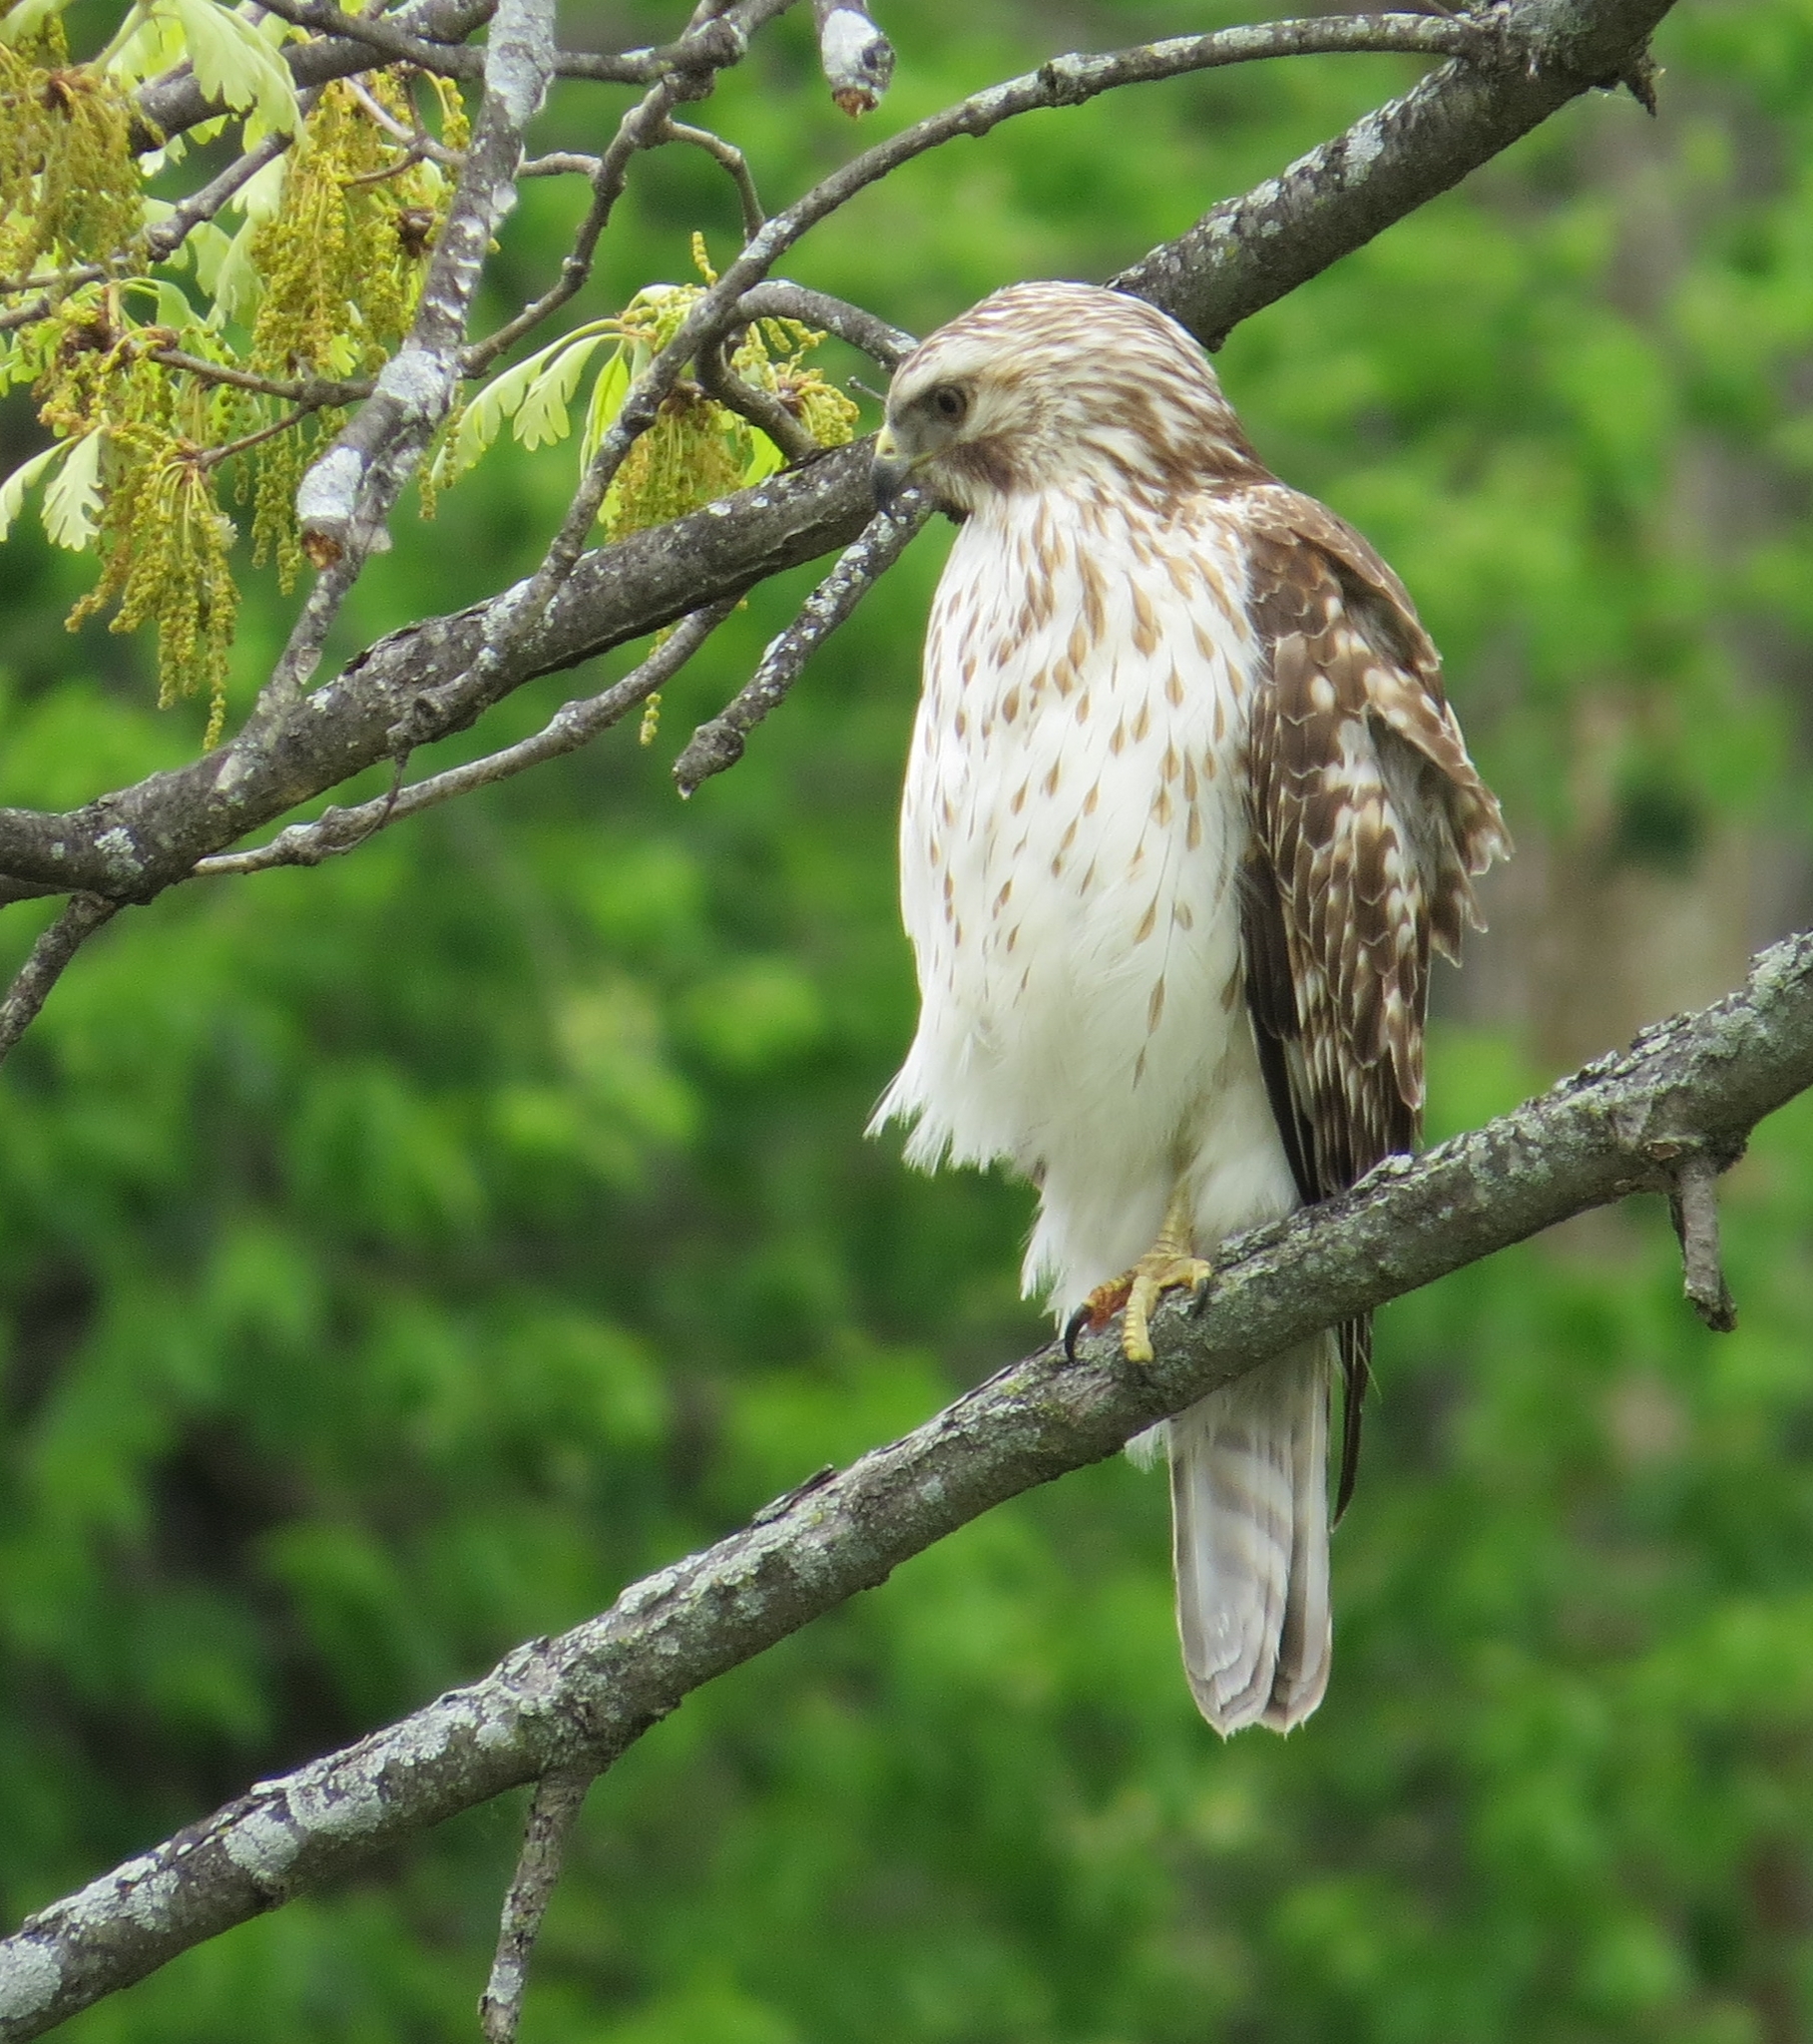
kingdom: Animalia
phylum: Chordata
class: Aves
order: Accipitriformes
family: Accipitridae
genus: Buteo
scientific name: Buteo lineatus
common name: Red-shouldered hawk
